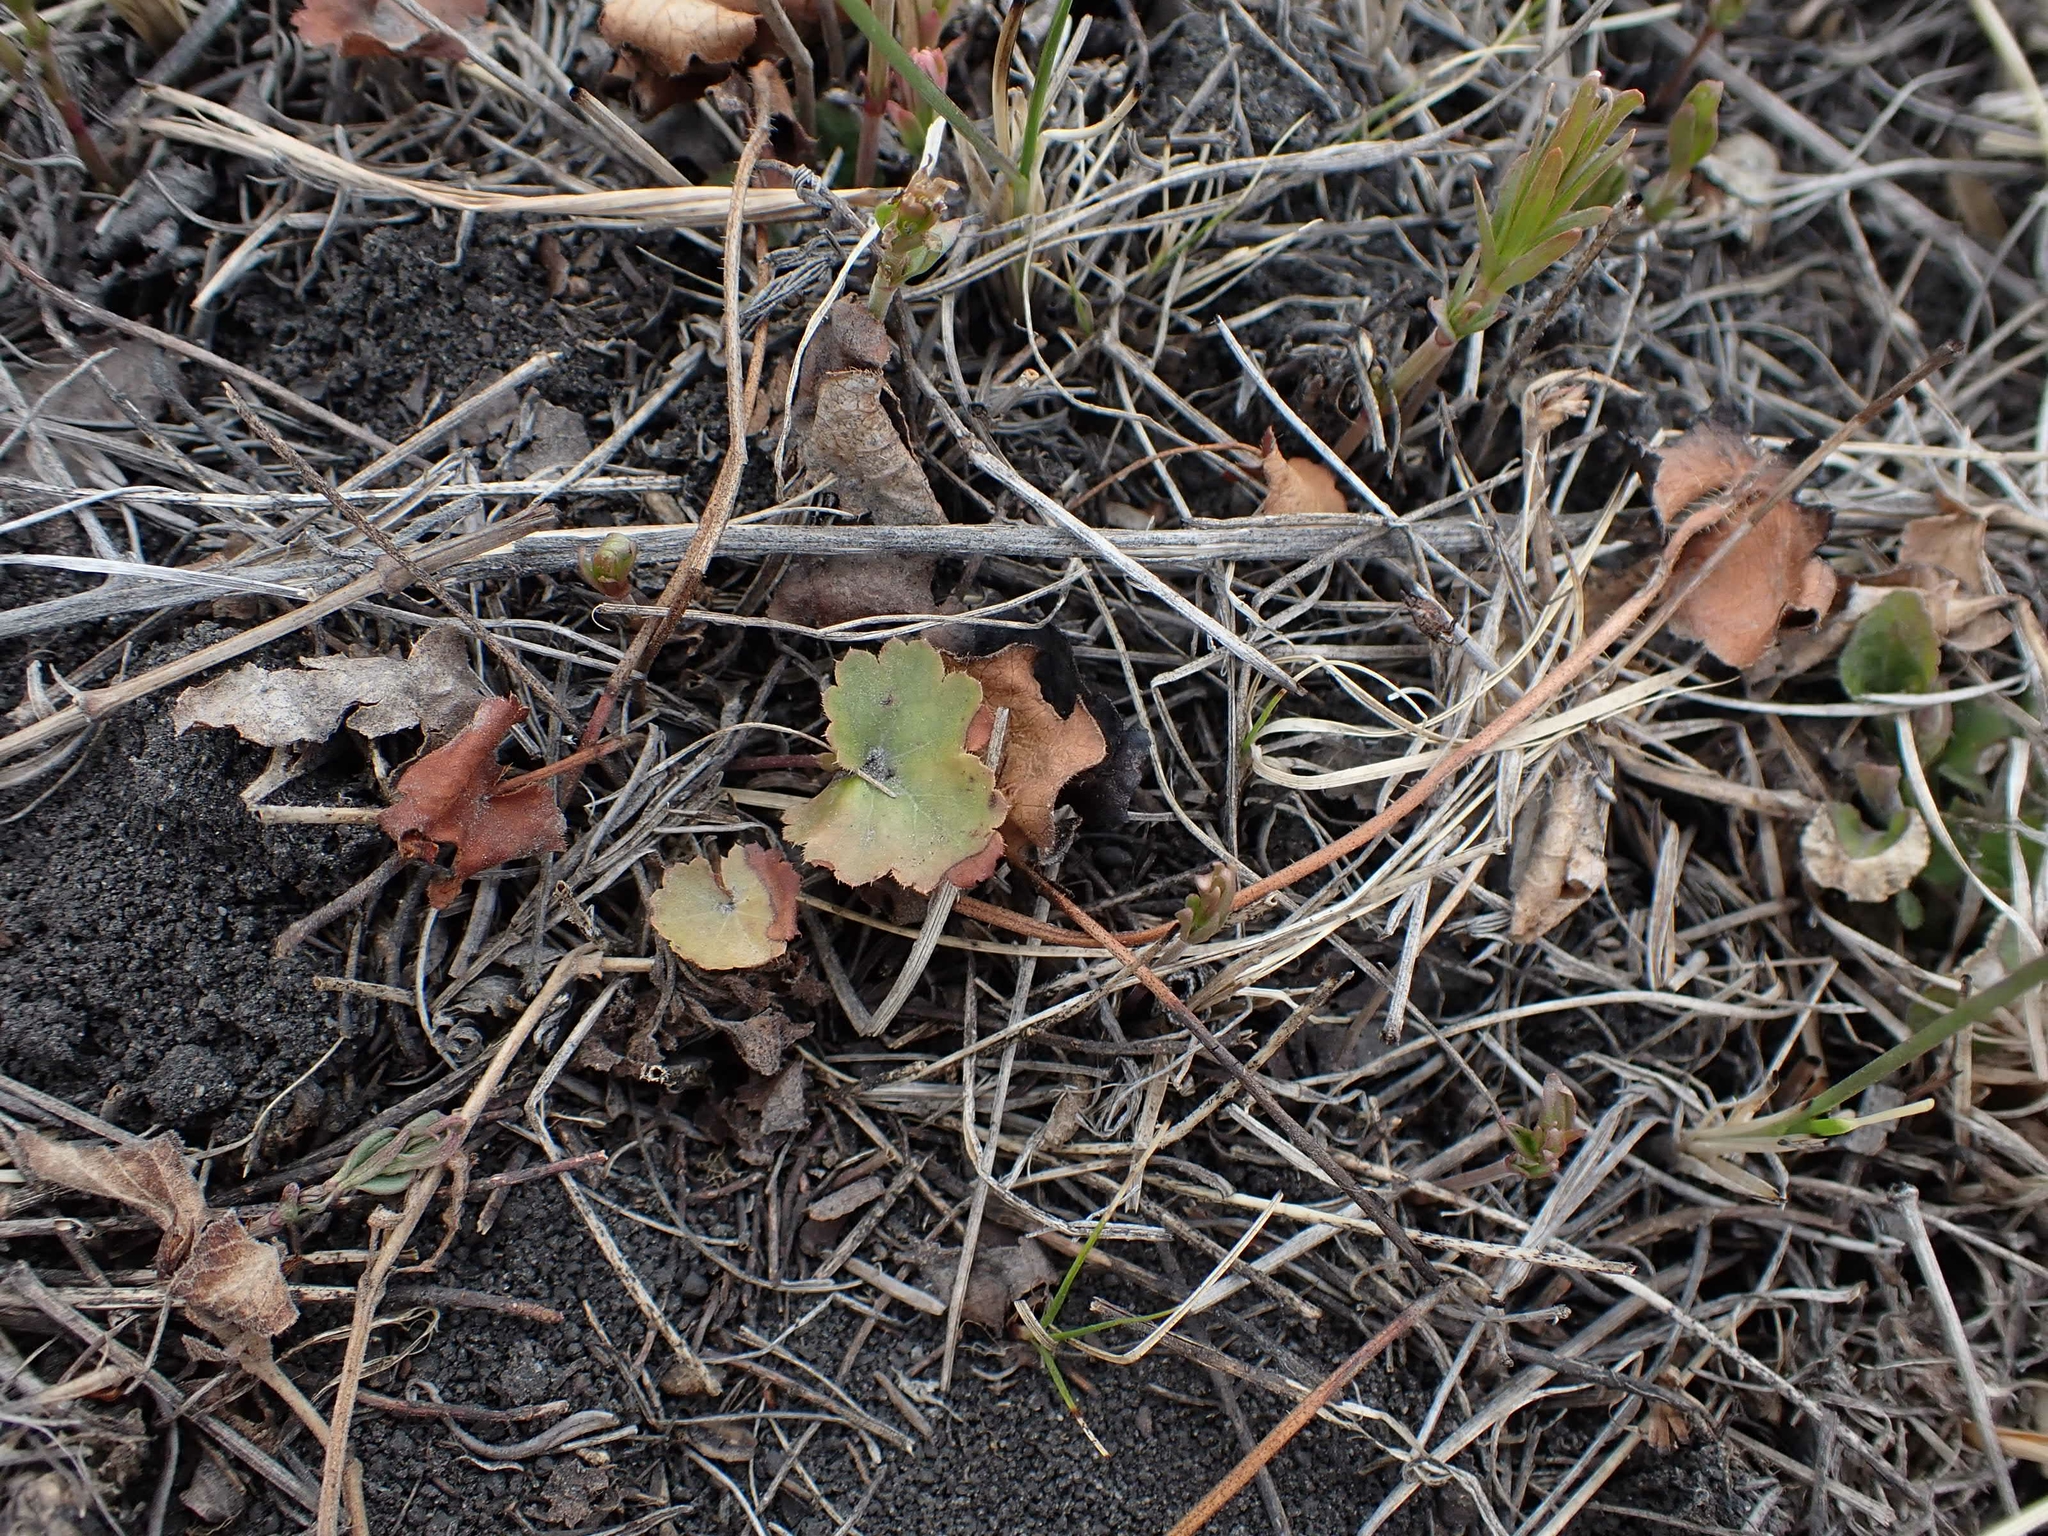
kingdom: Plantae
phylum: Tracheophyta
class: Magnoliopsida
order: Saxifragales
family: Saxifragaceae
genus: Heuchera
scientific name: Heuchera richardsonii
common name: Richardson's alumroot
